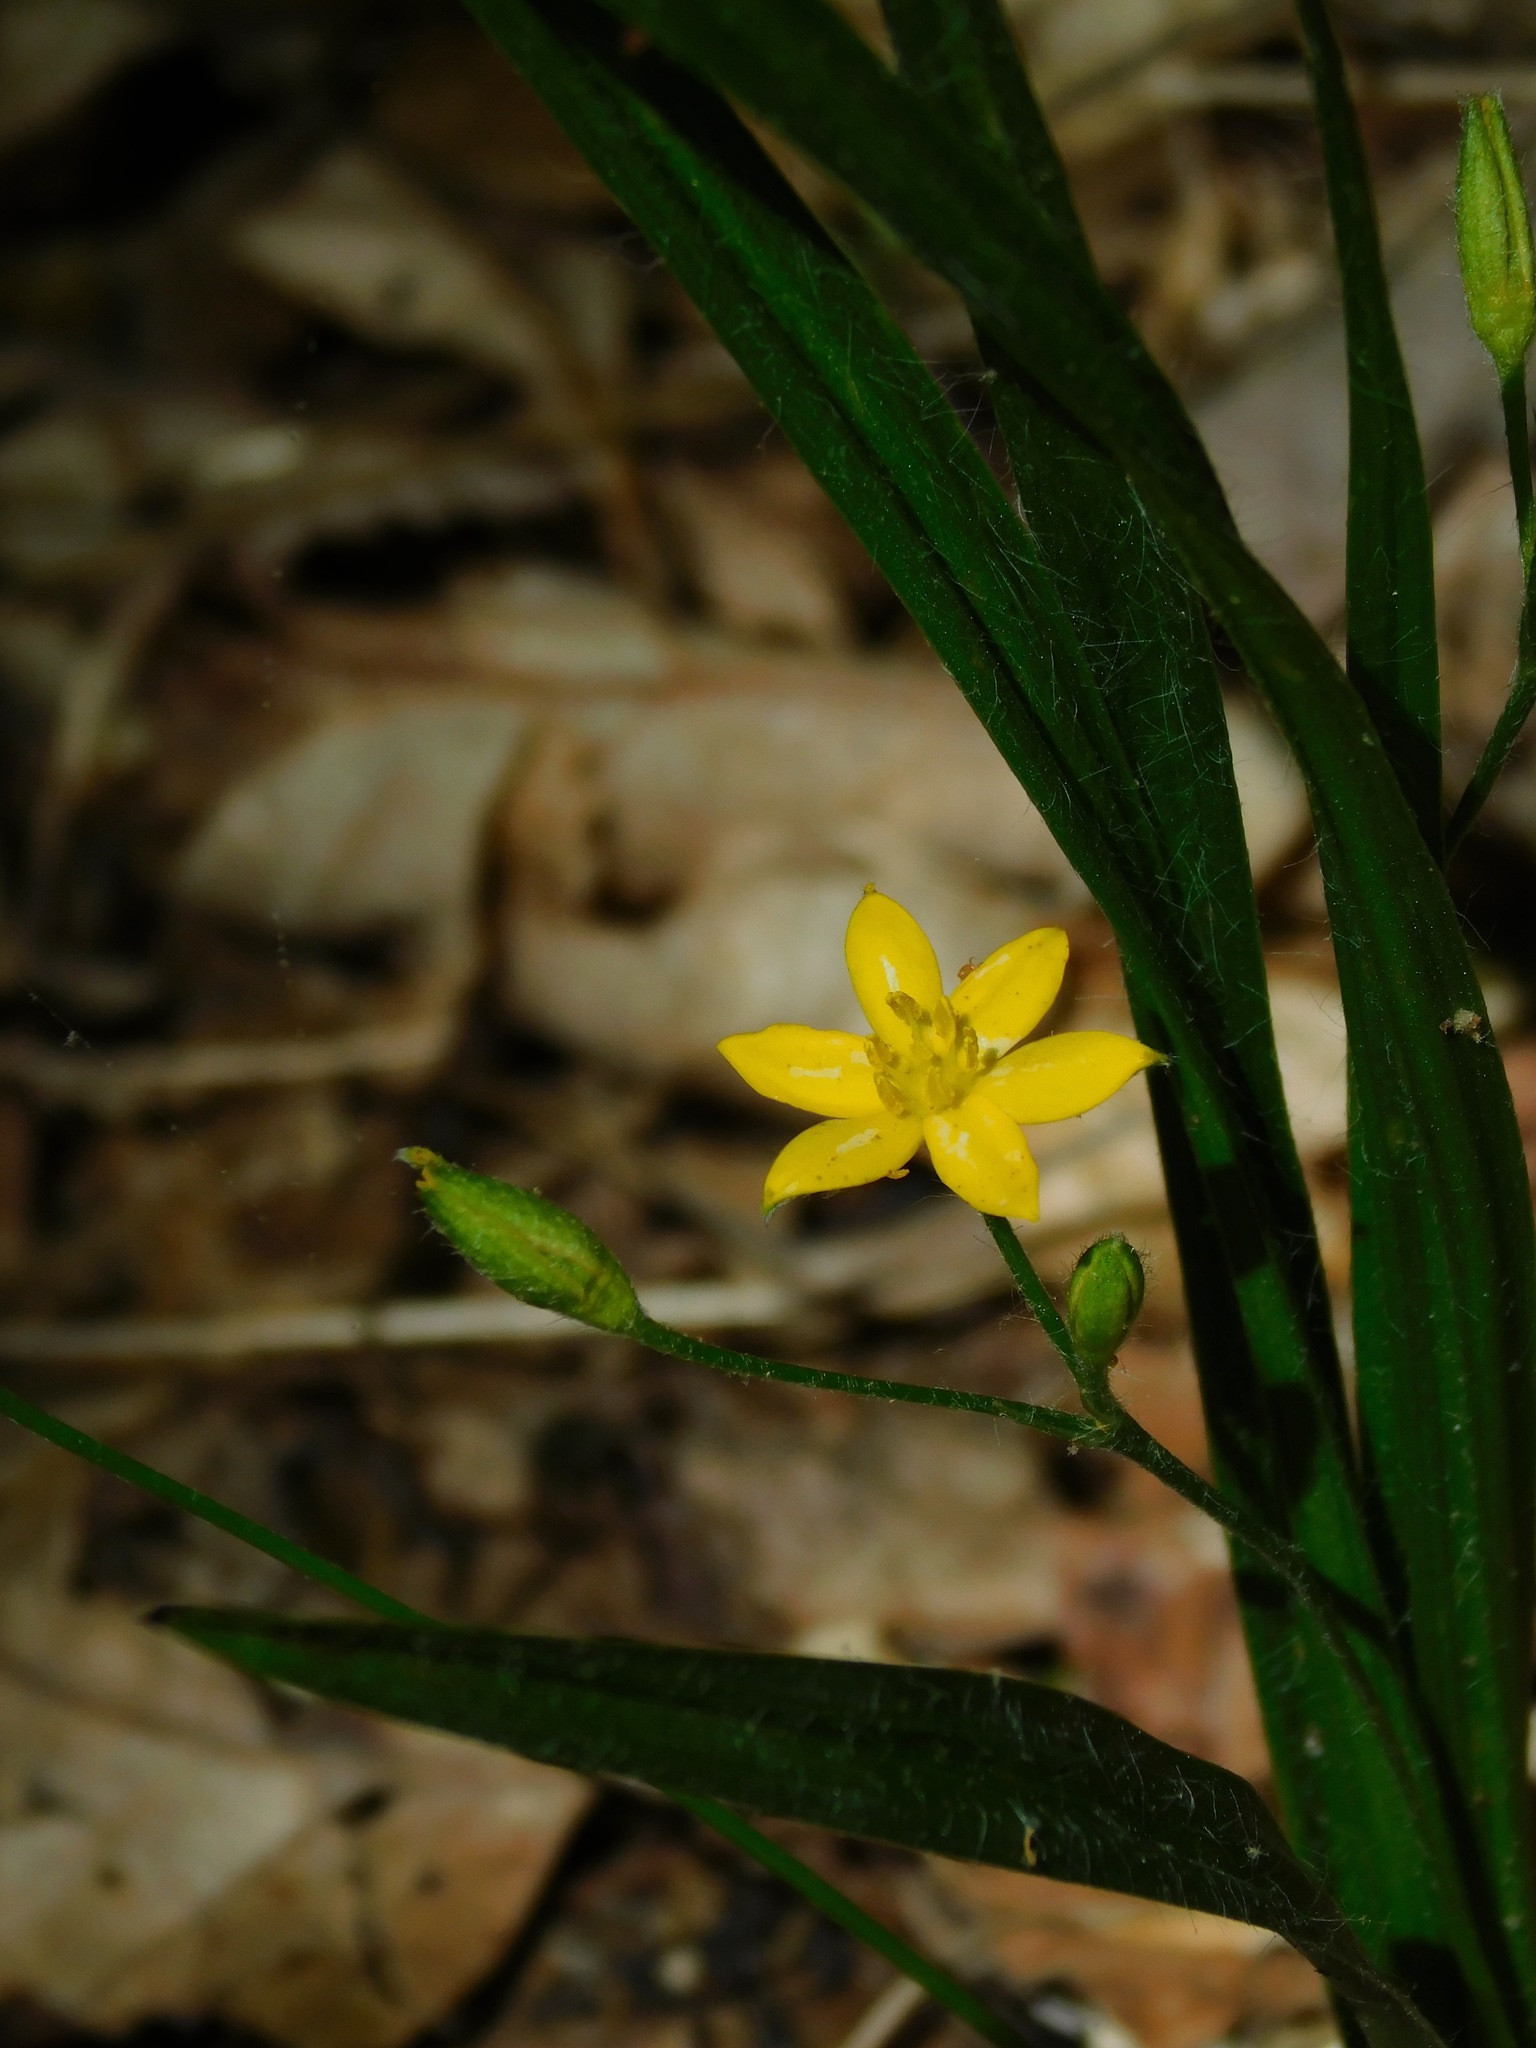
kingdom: Plantae
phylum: Tracheophyta
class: Liliopsida
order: Asparagales
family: Hypoxidaceae
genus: Hypoxis
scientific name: Hypoxis hirsuta
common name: Common goldstar
